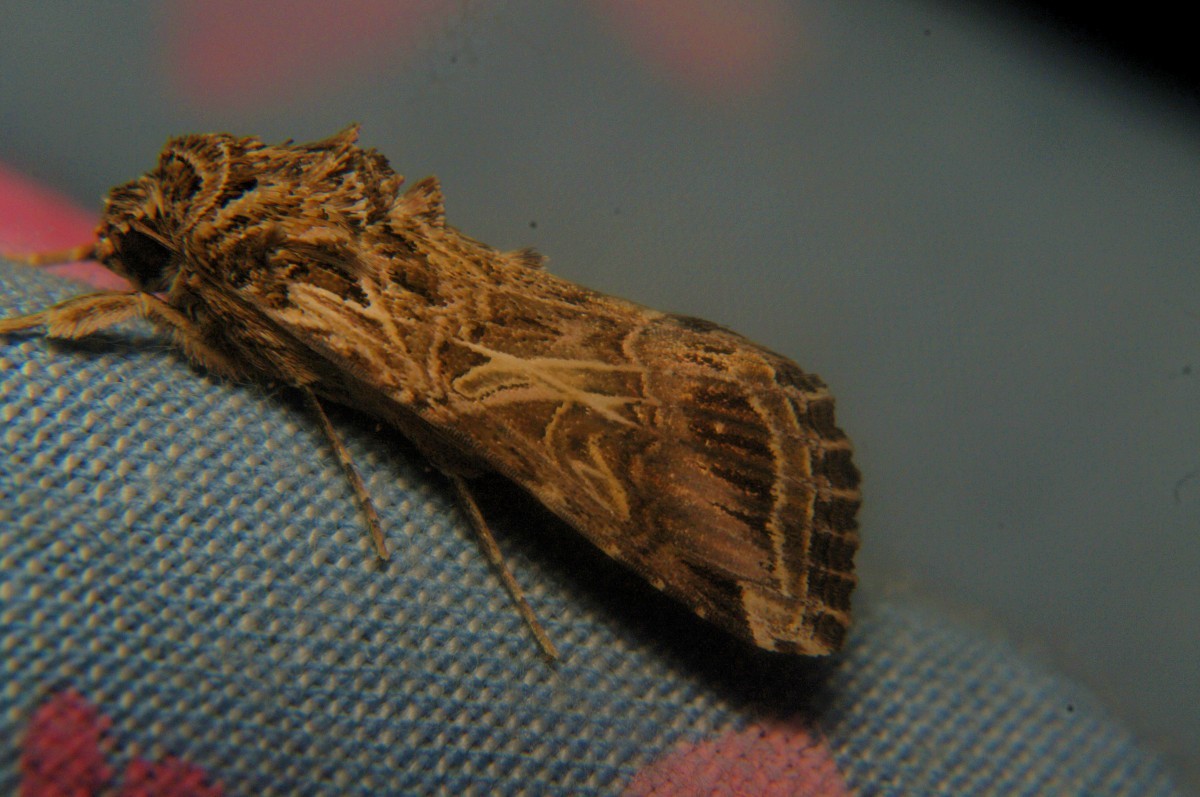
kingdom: Animalia
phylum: Arthropoda
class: Insecta
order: Lepidoptera
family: Noctuidae
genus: Spodoptera
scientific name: Spodoptera litura
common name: Asian cotton leafworm
